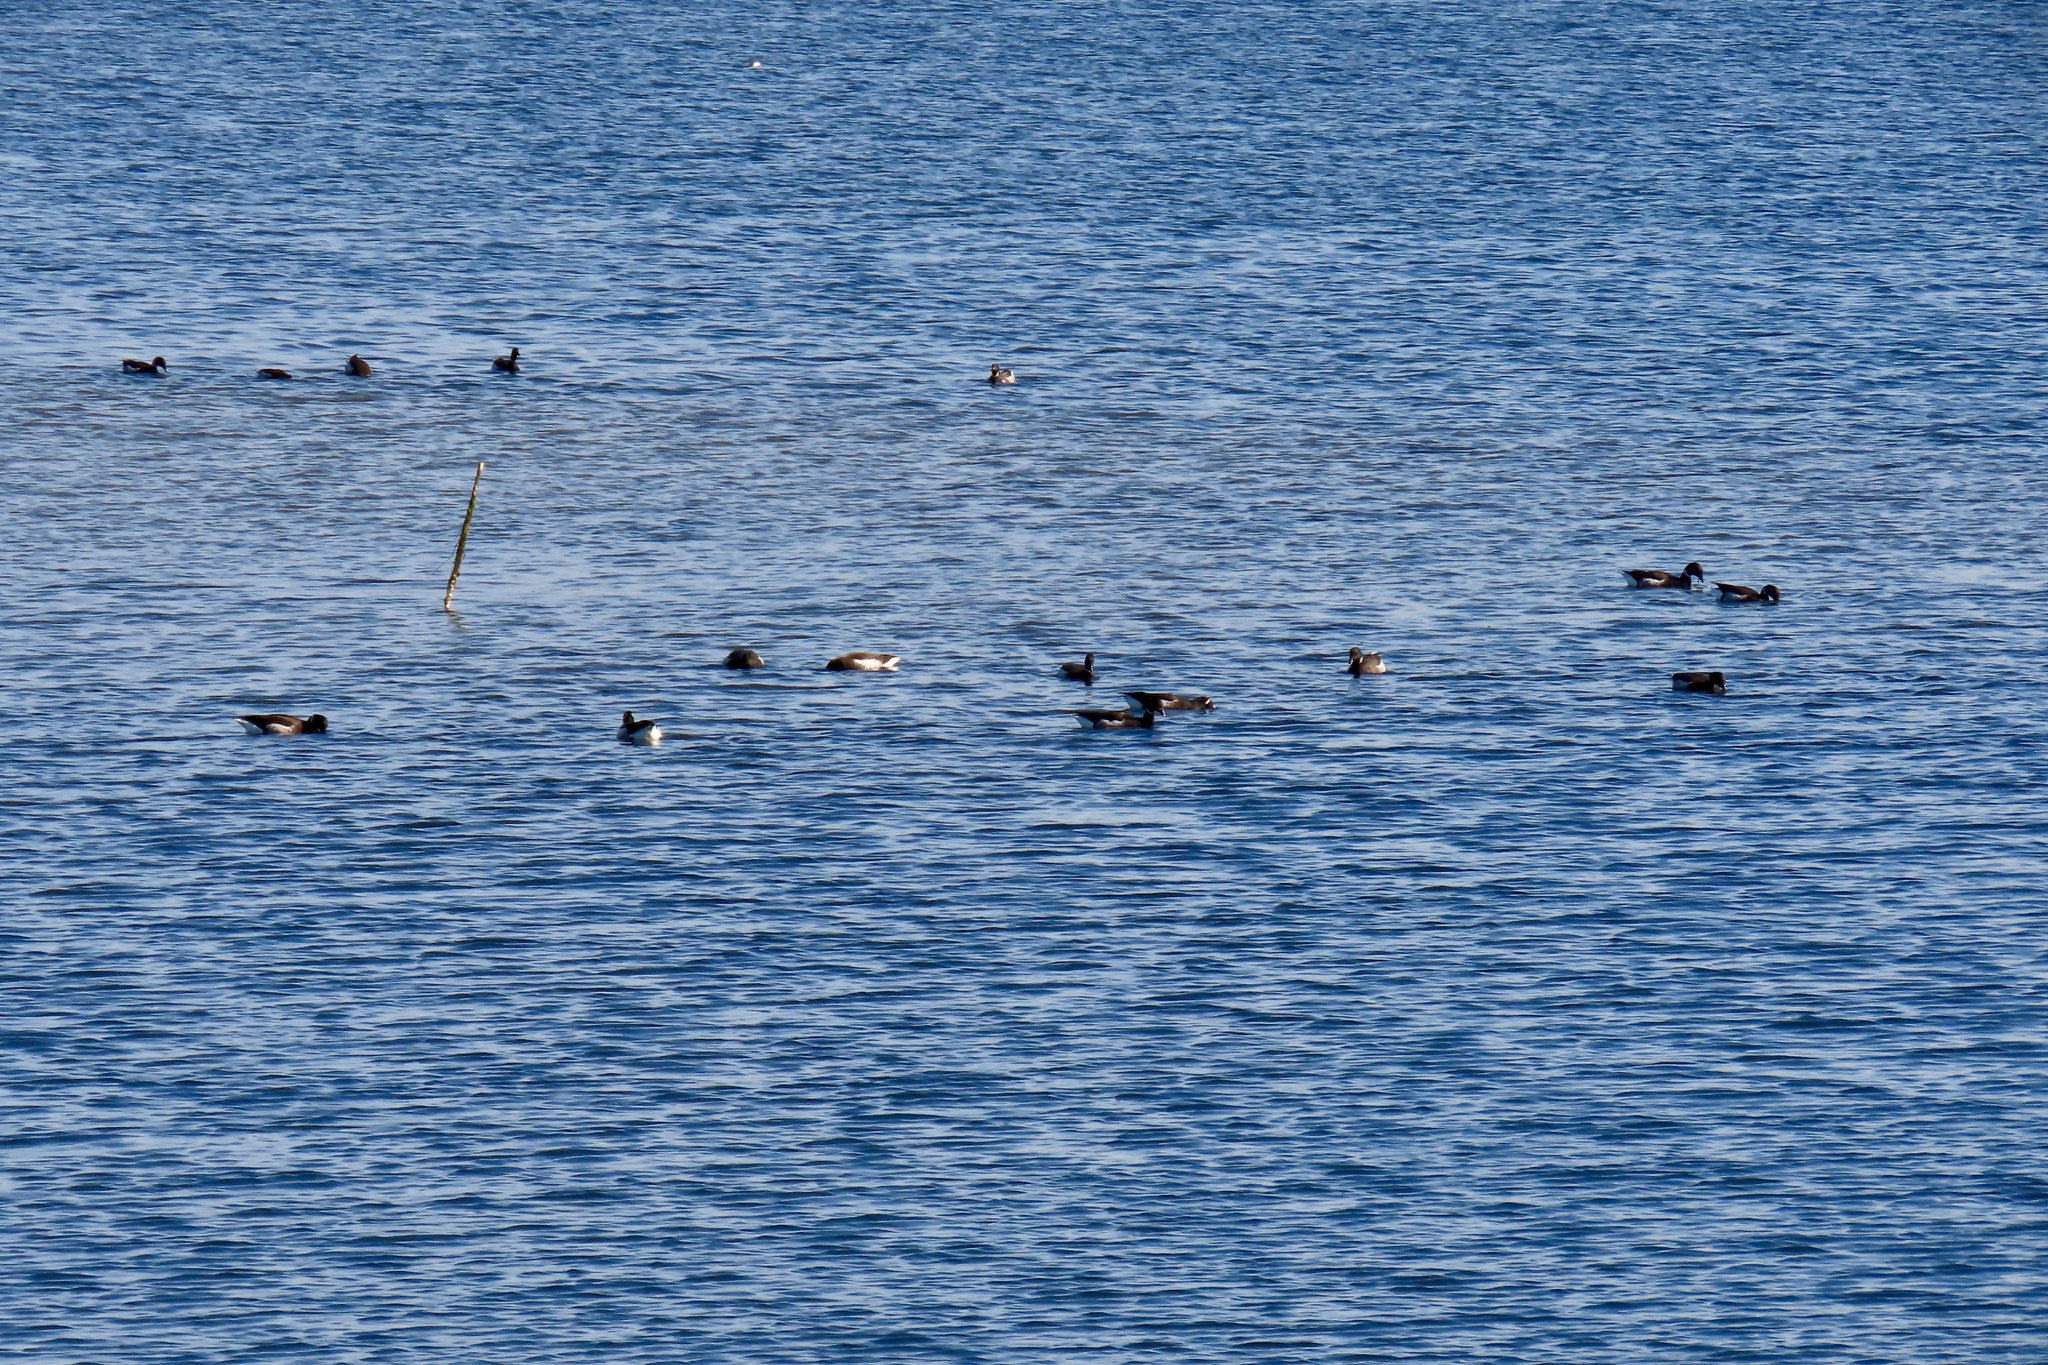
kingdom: Animalia
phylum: Chordata
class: Aves
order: Anseriformes
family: Anatidae
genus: Branta
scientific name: Branta bernicla
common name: Brant goose
